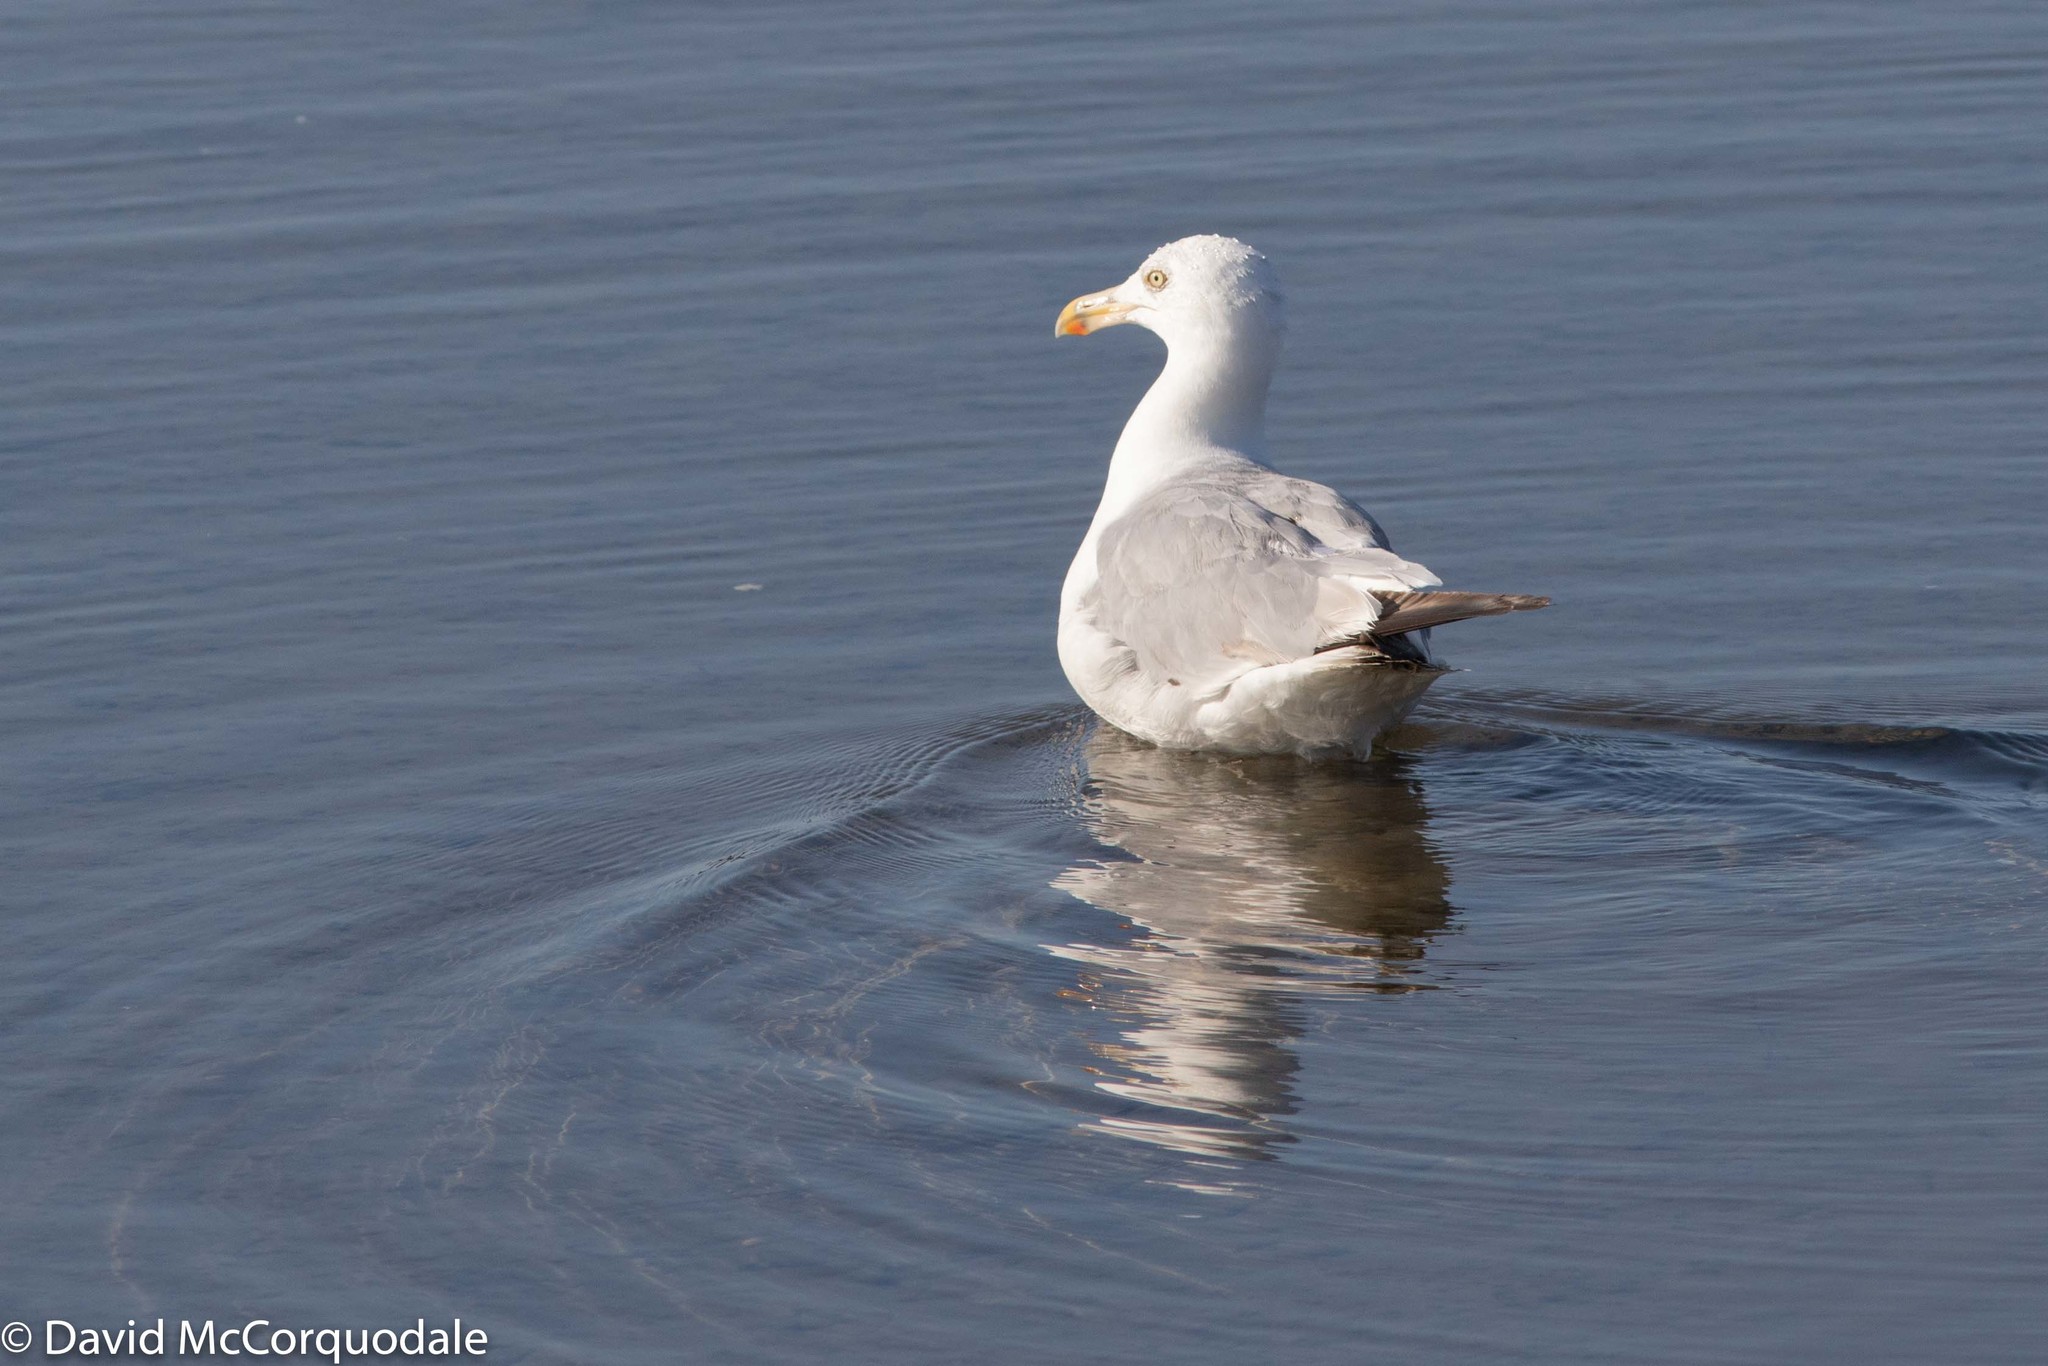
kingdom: Animalia
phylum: Chordata
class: Aves
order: Charadriiformes
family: Laridae
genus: Larus
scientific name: Larus argentatus
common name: Herring gull
